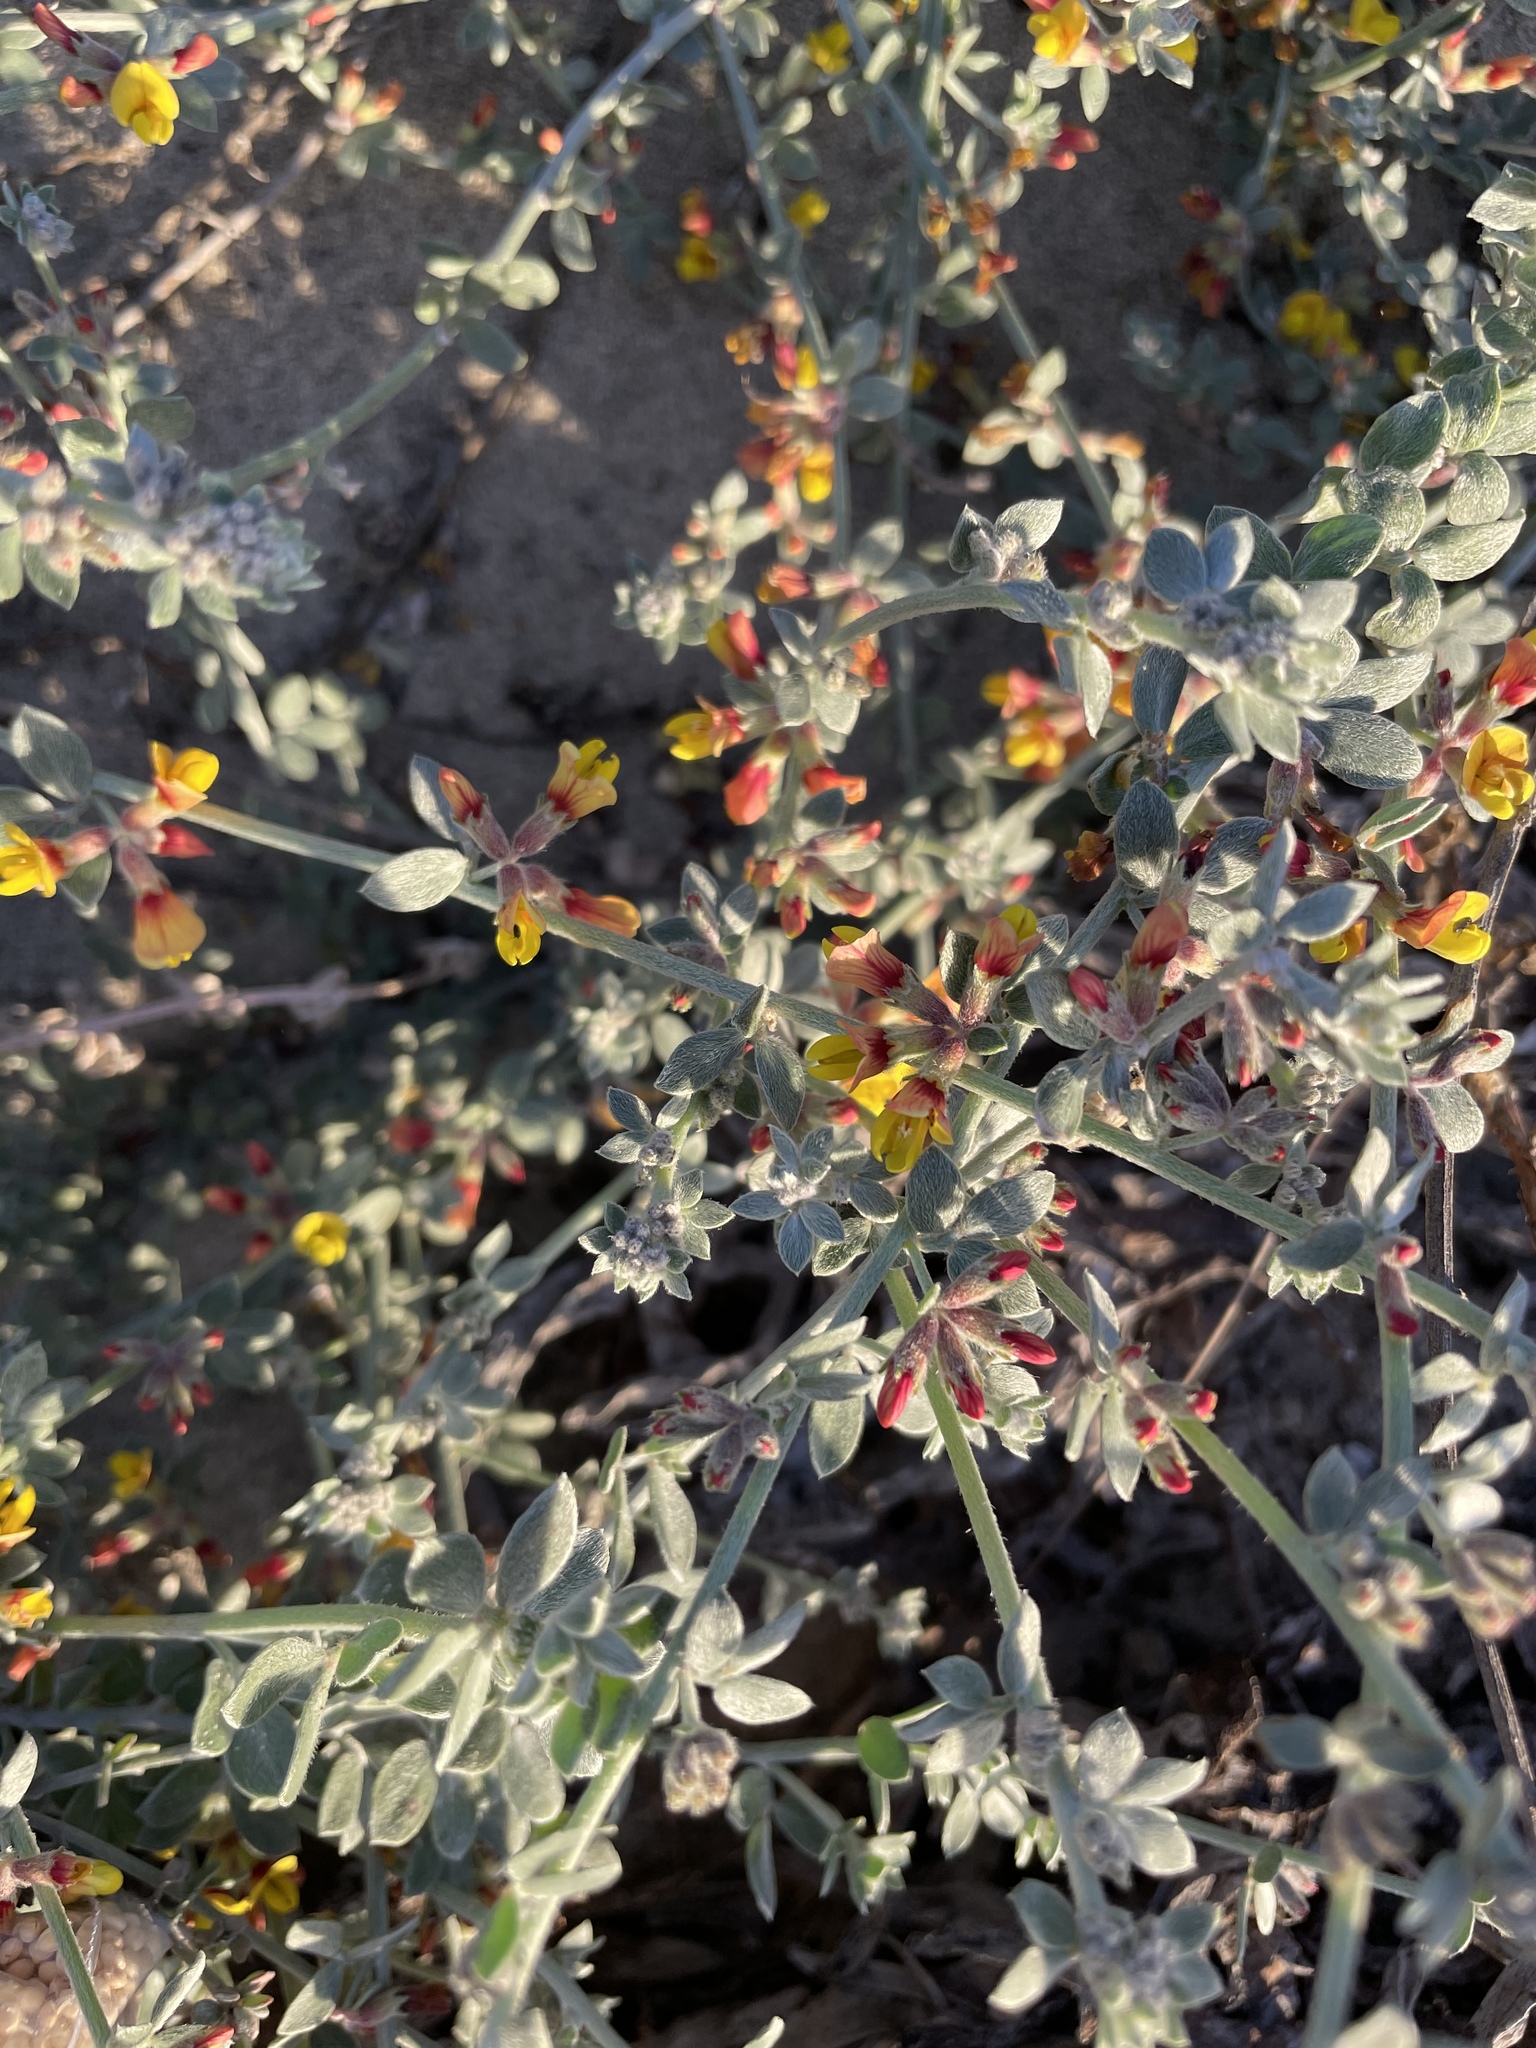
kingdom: Plantae
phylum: Tracheophyta
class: Magnoliopsida
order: Fabales
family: Fabaceae
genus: Acmispon
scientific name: Acmispon distichus
